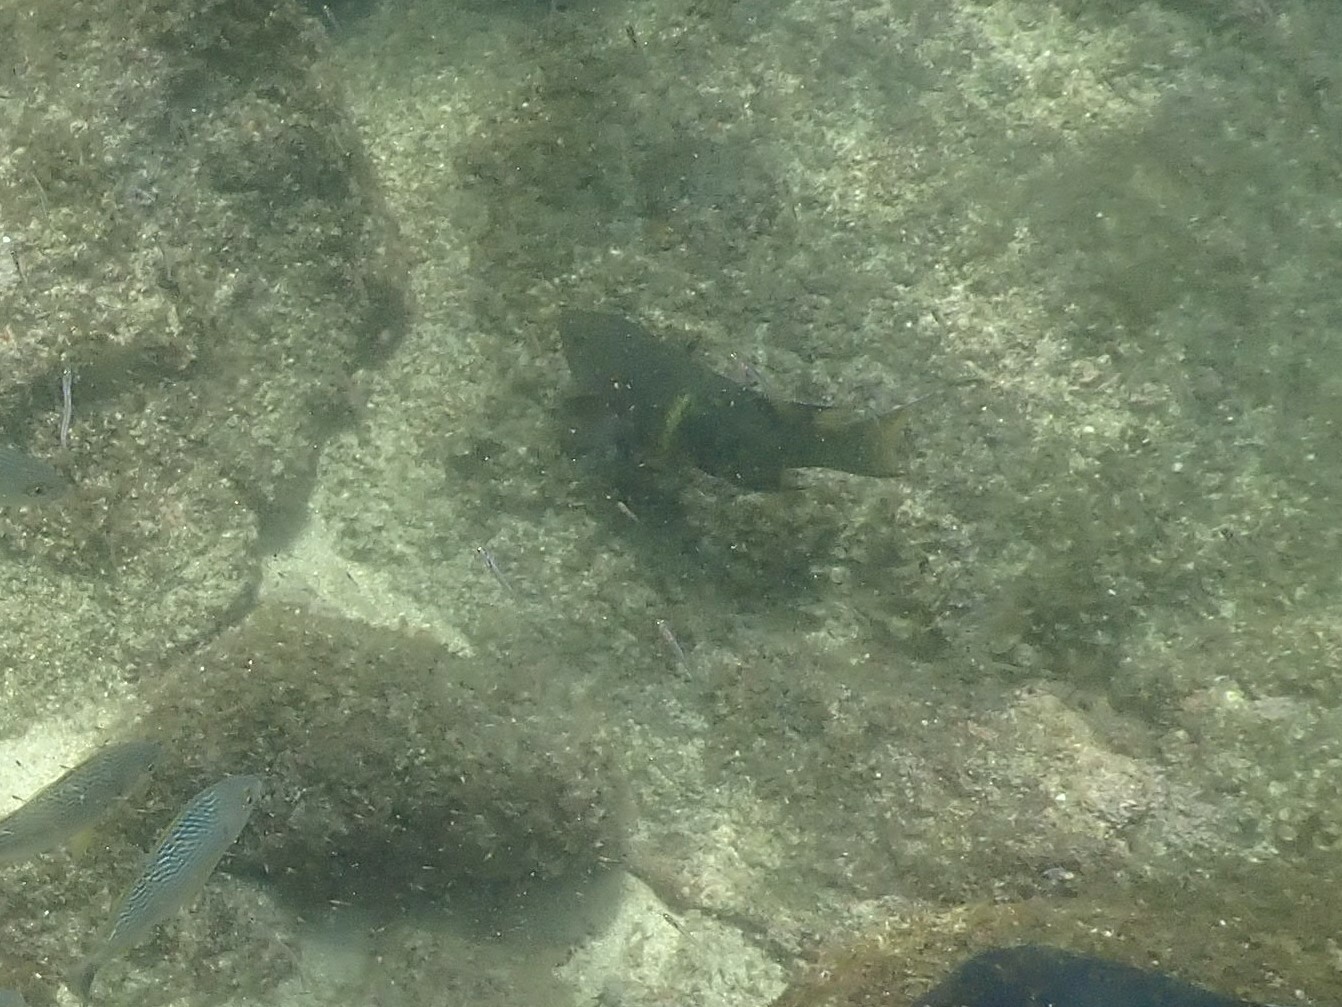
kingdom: Animalia
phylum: Chordata
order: Perciformes
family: Labridae
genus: Bodianus
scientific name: Bodianus diplotaenia
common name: Mexican hogfish
